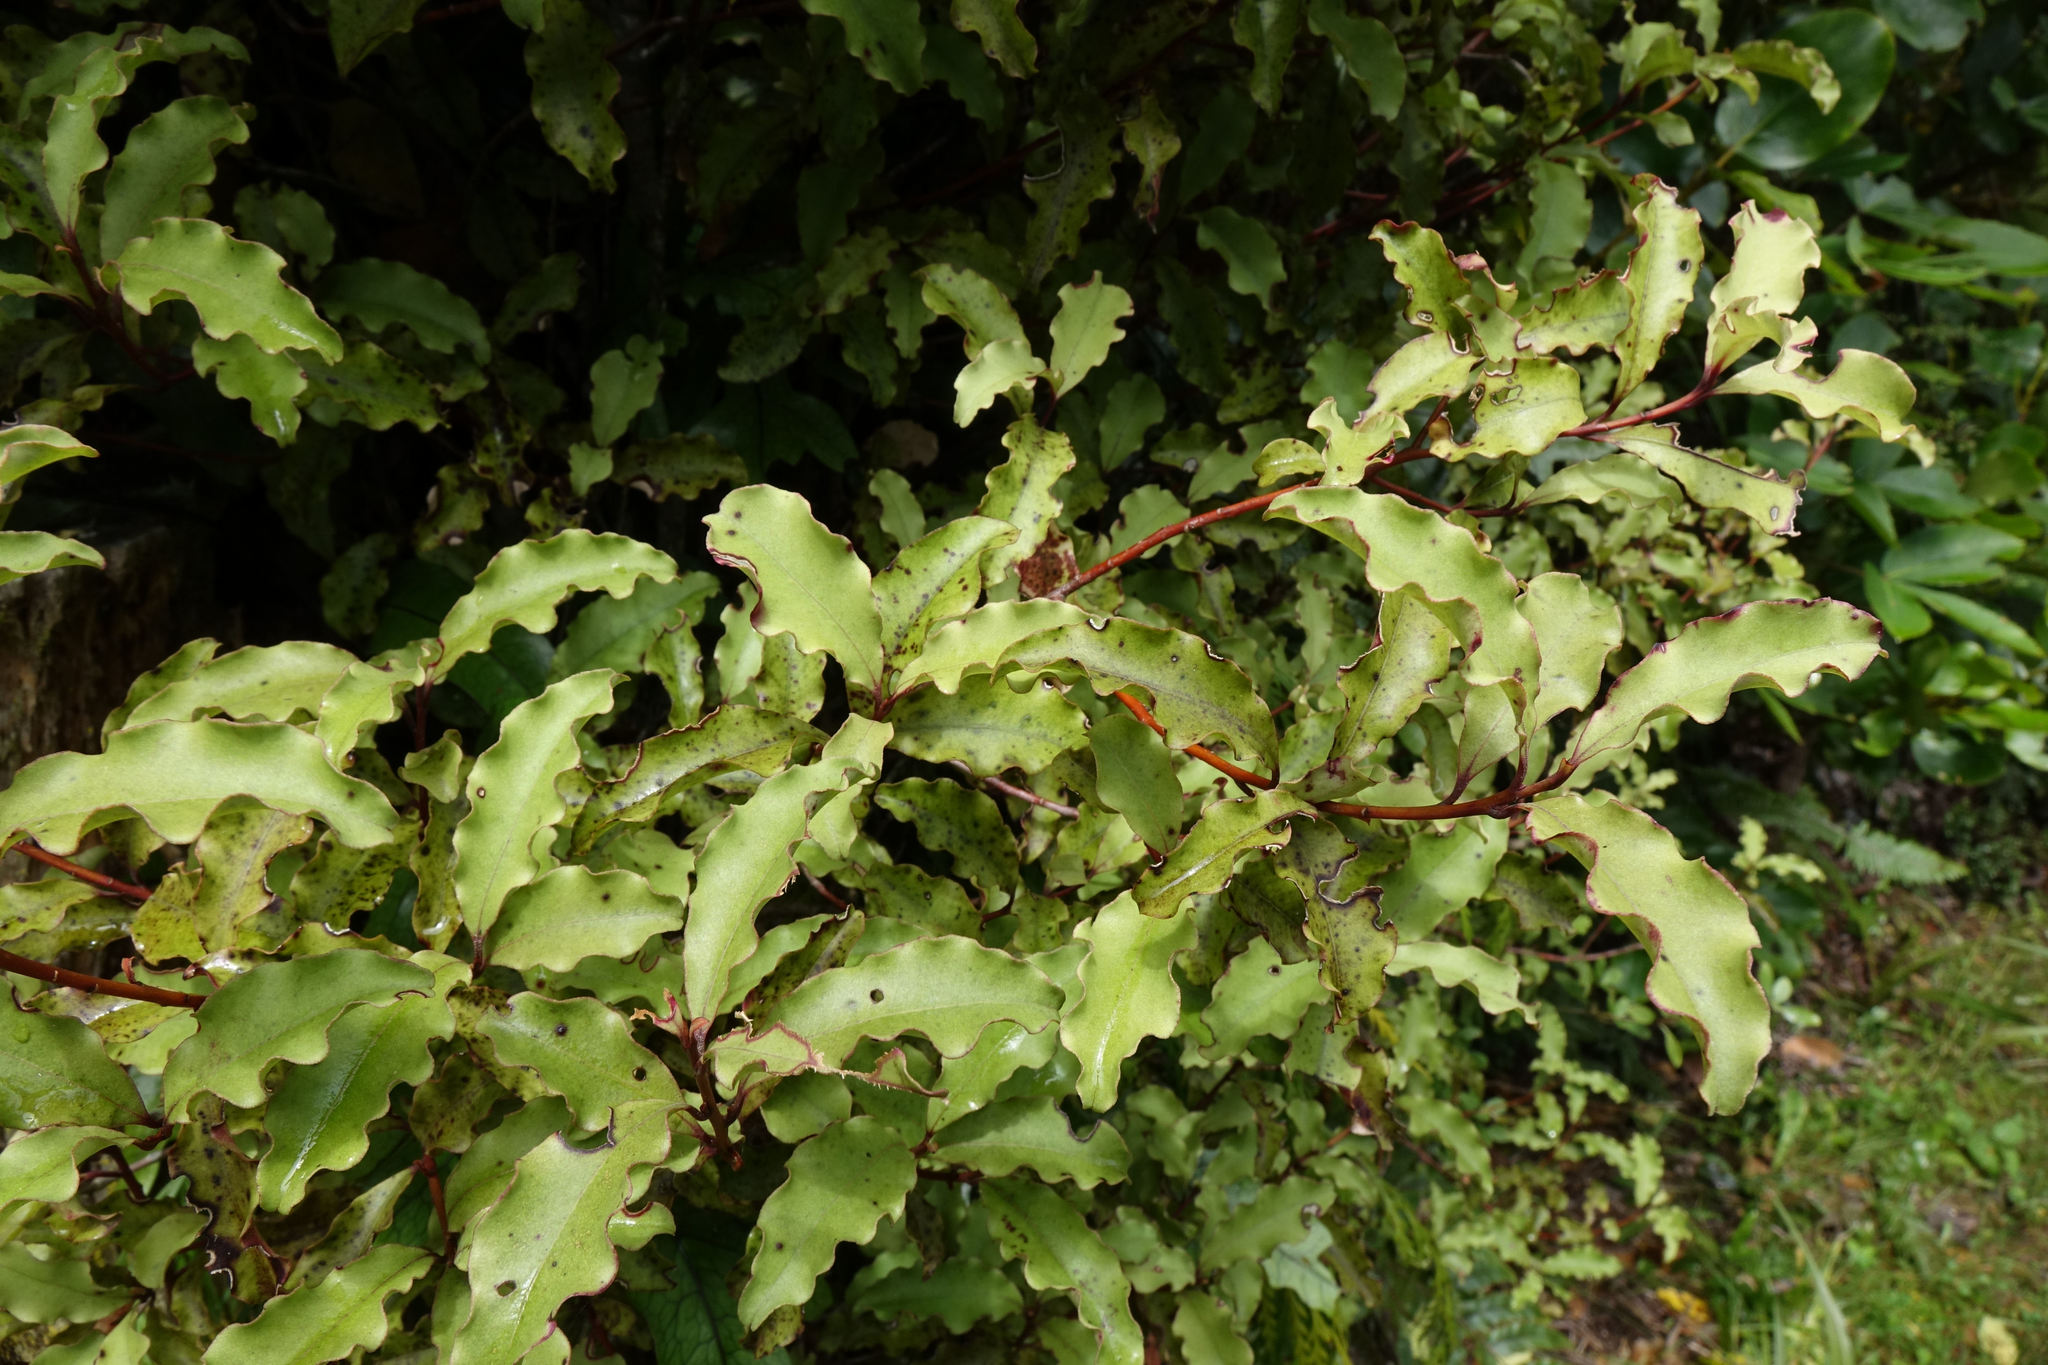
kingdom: Plantae
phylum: Tracheophyta
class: Magnoliopsida
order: Ericales
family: Primulaceae
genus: Myrsine
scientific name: Myrsine australis
